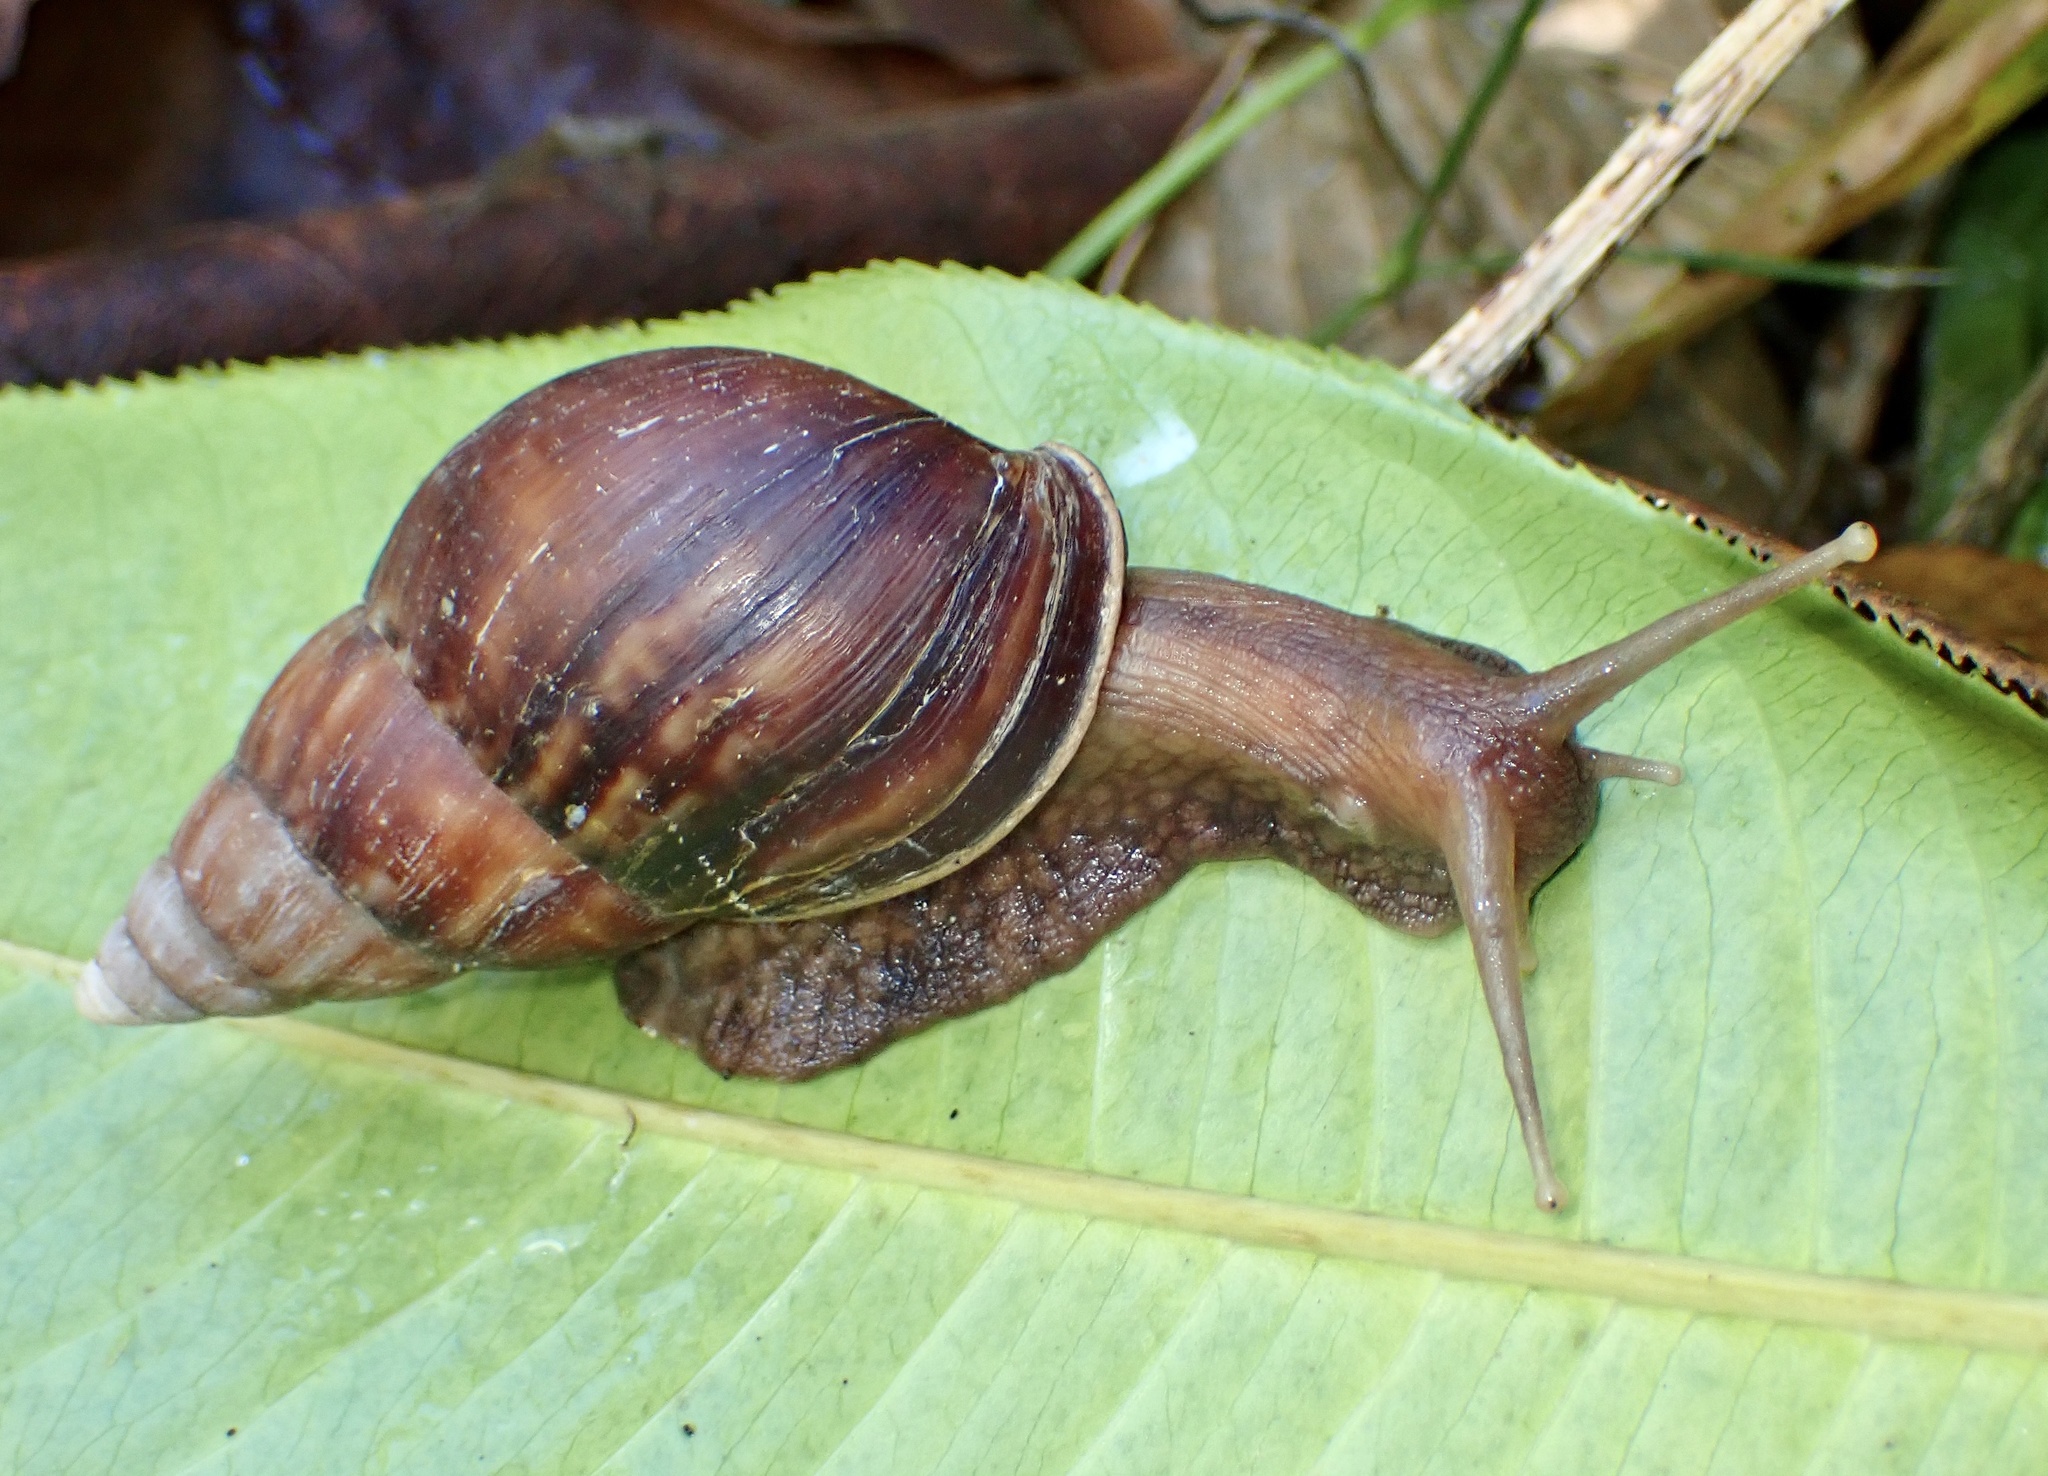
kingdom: Animalia
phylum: Mollusca
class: Gastropoda
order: Stylommatophora
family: Achatinidae
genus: Lissachatina
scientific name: Lissachatina fulica
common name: Giant african snail
